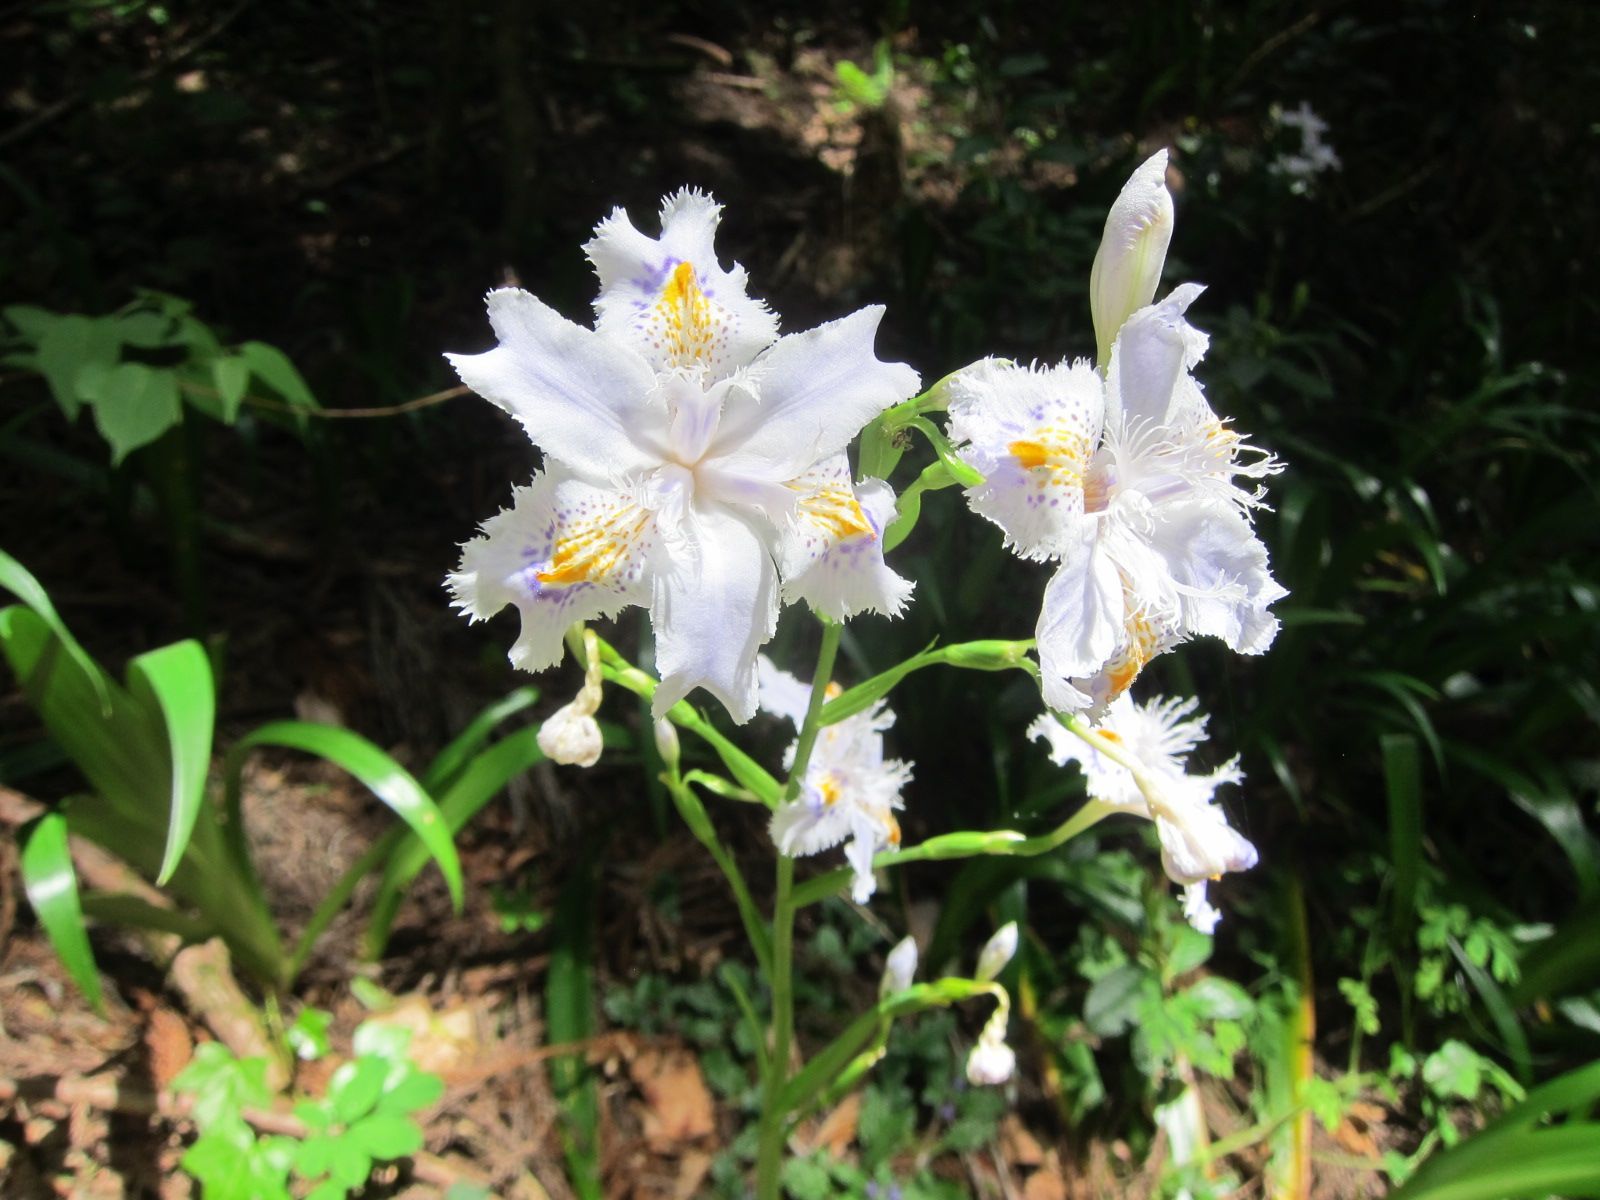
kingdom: Plantae
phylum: Tracheophyta
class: Liliopsida
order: Asparagales
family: Iridaceae
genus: Iris
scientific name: Iris japonica
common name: Butterfly-flower
